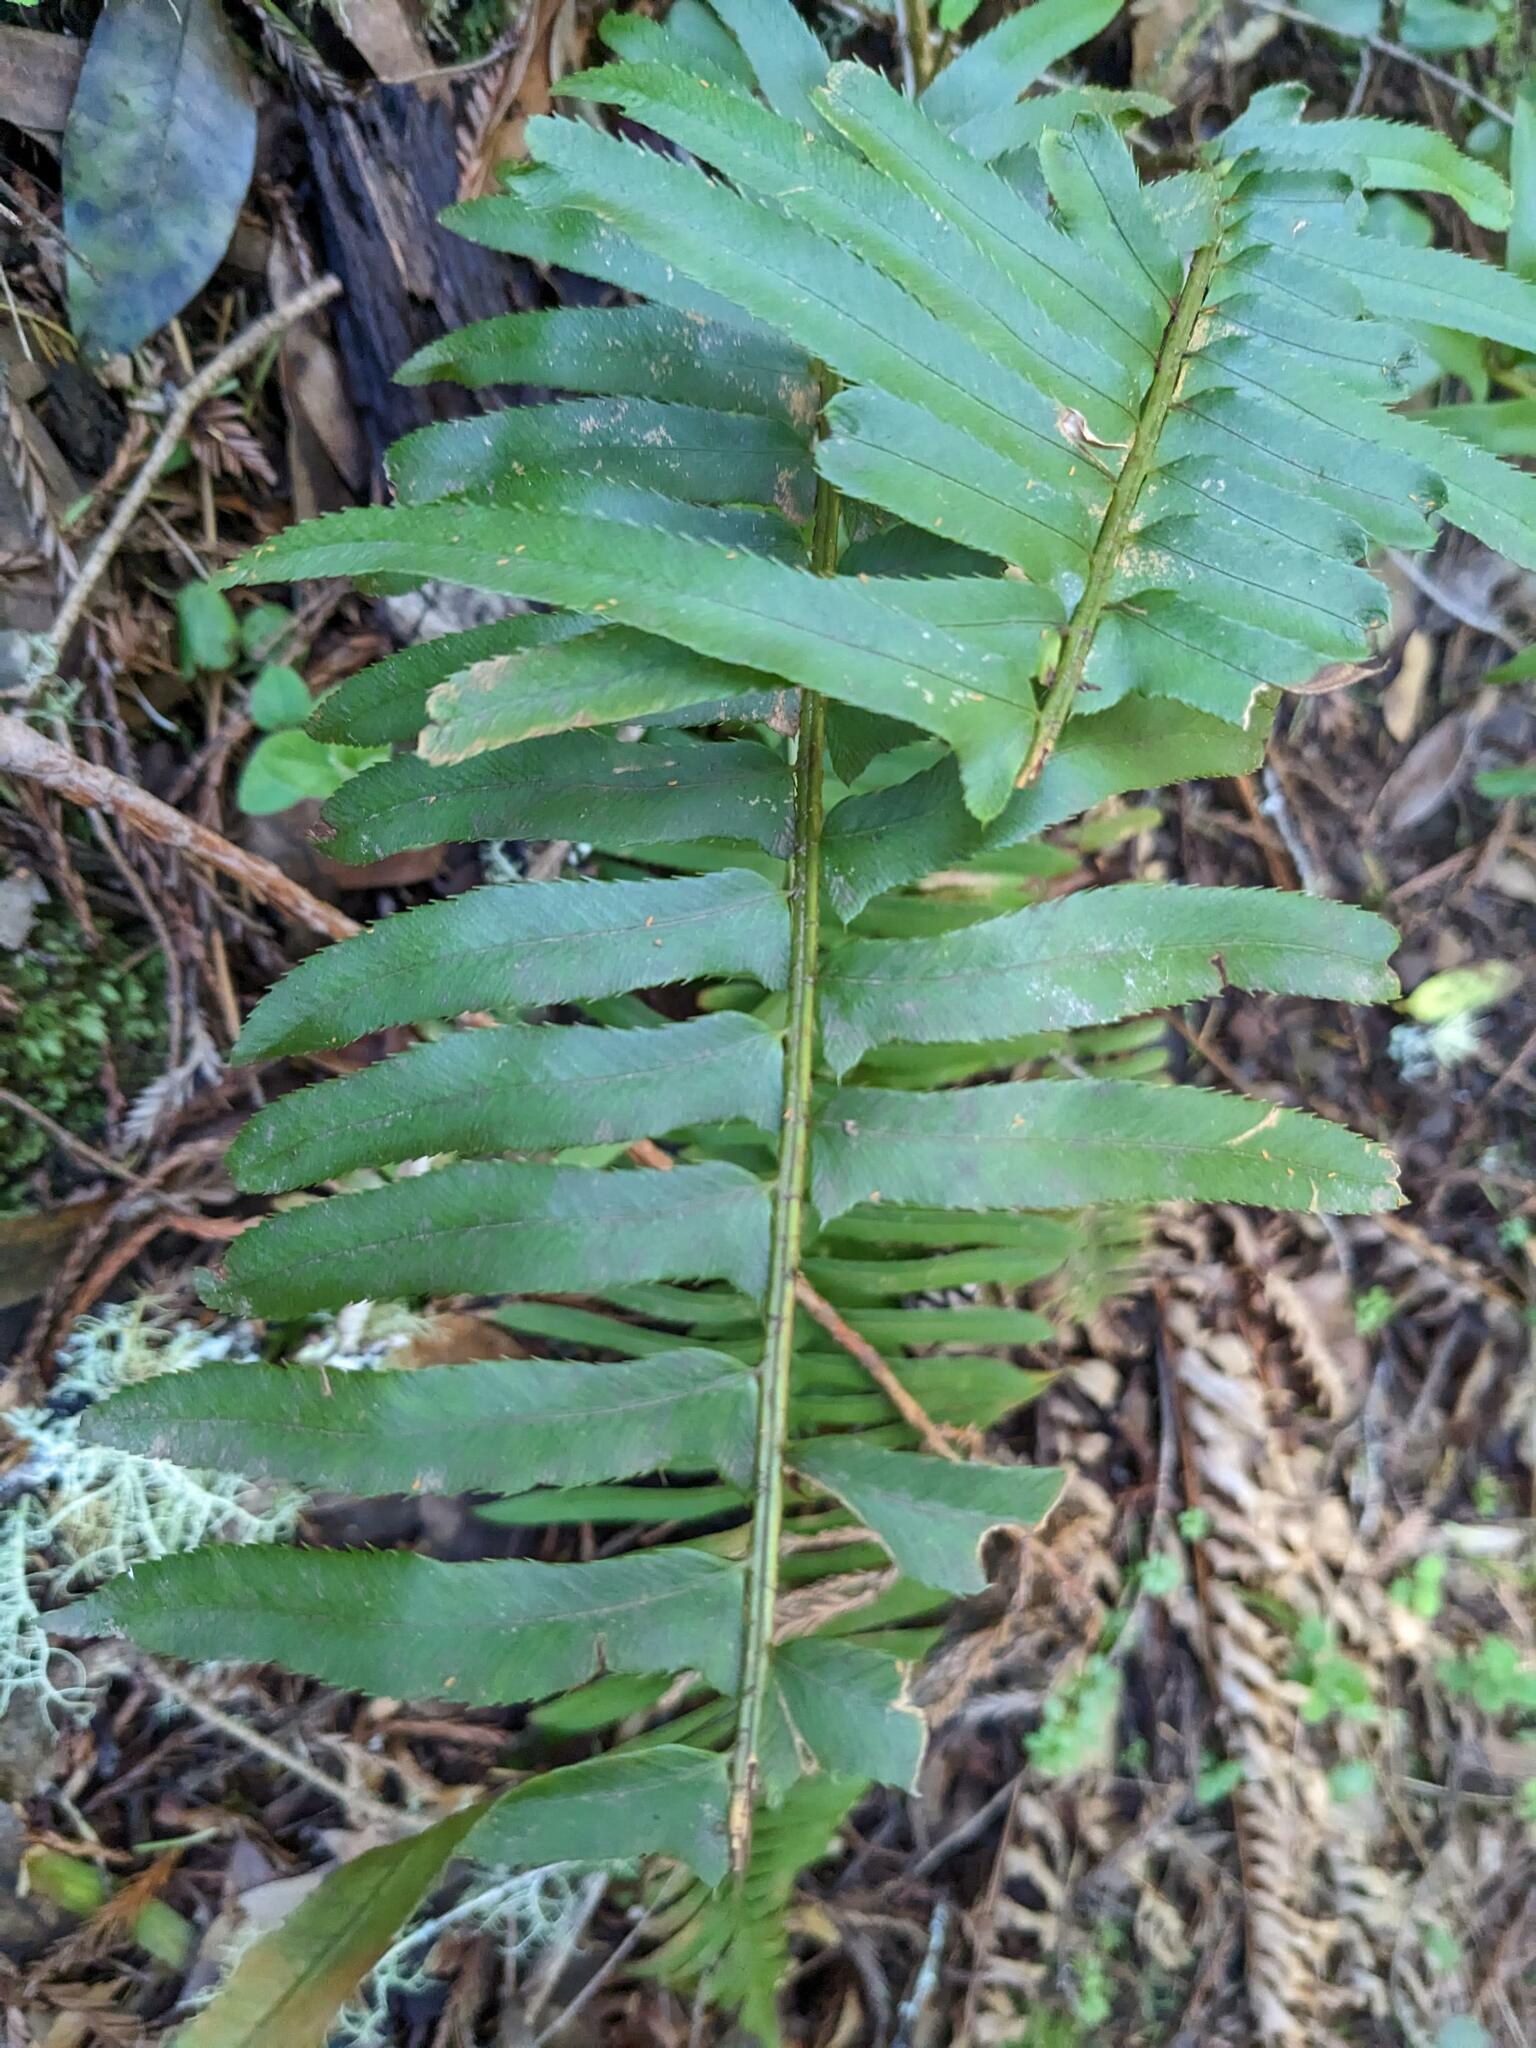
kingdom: Plantae
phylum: Tracheophyta
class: Polypodiopsida
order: Polypodiales
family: Dryopteridaceae
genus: Polystichum
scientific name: Polystichum munitum
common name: Western sword-fern
